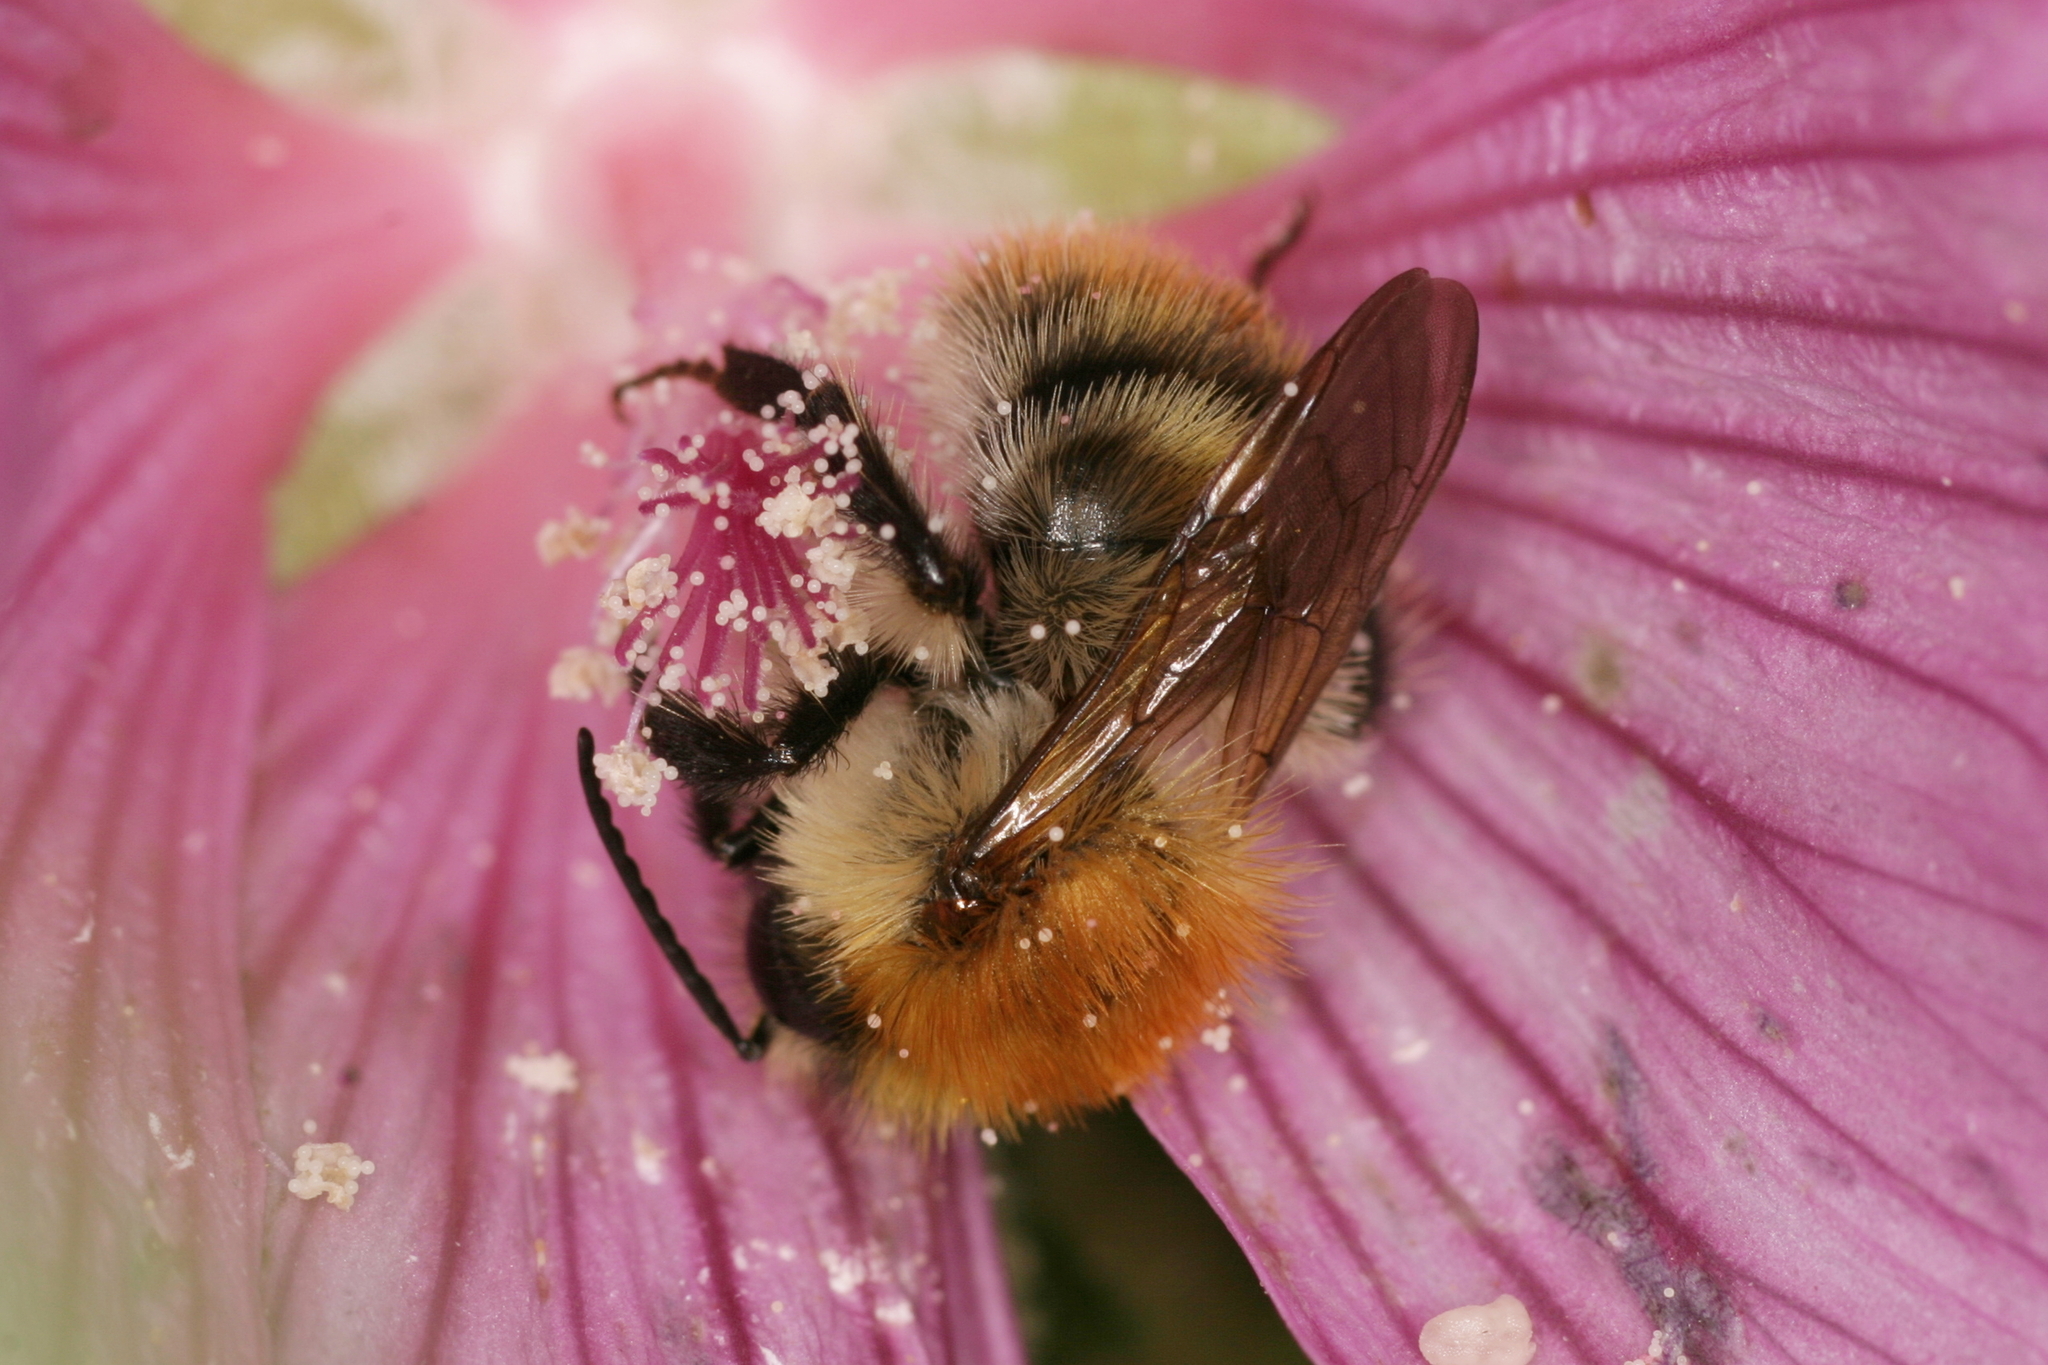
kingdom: Animalia
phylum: Arthropoda
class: Insecta
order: Hymenoptera
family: Apidae
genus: Bombus
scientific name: Bombus pascuorum
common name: Common carder bee
